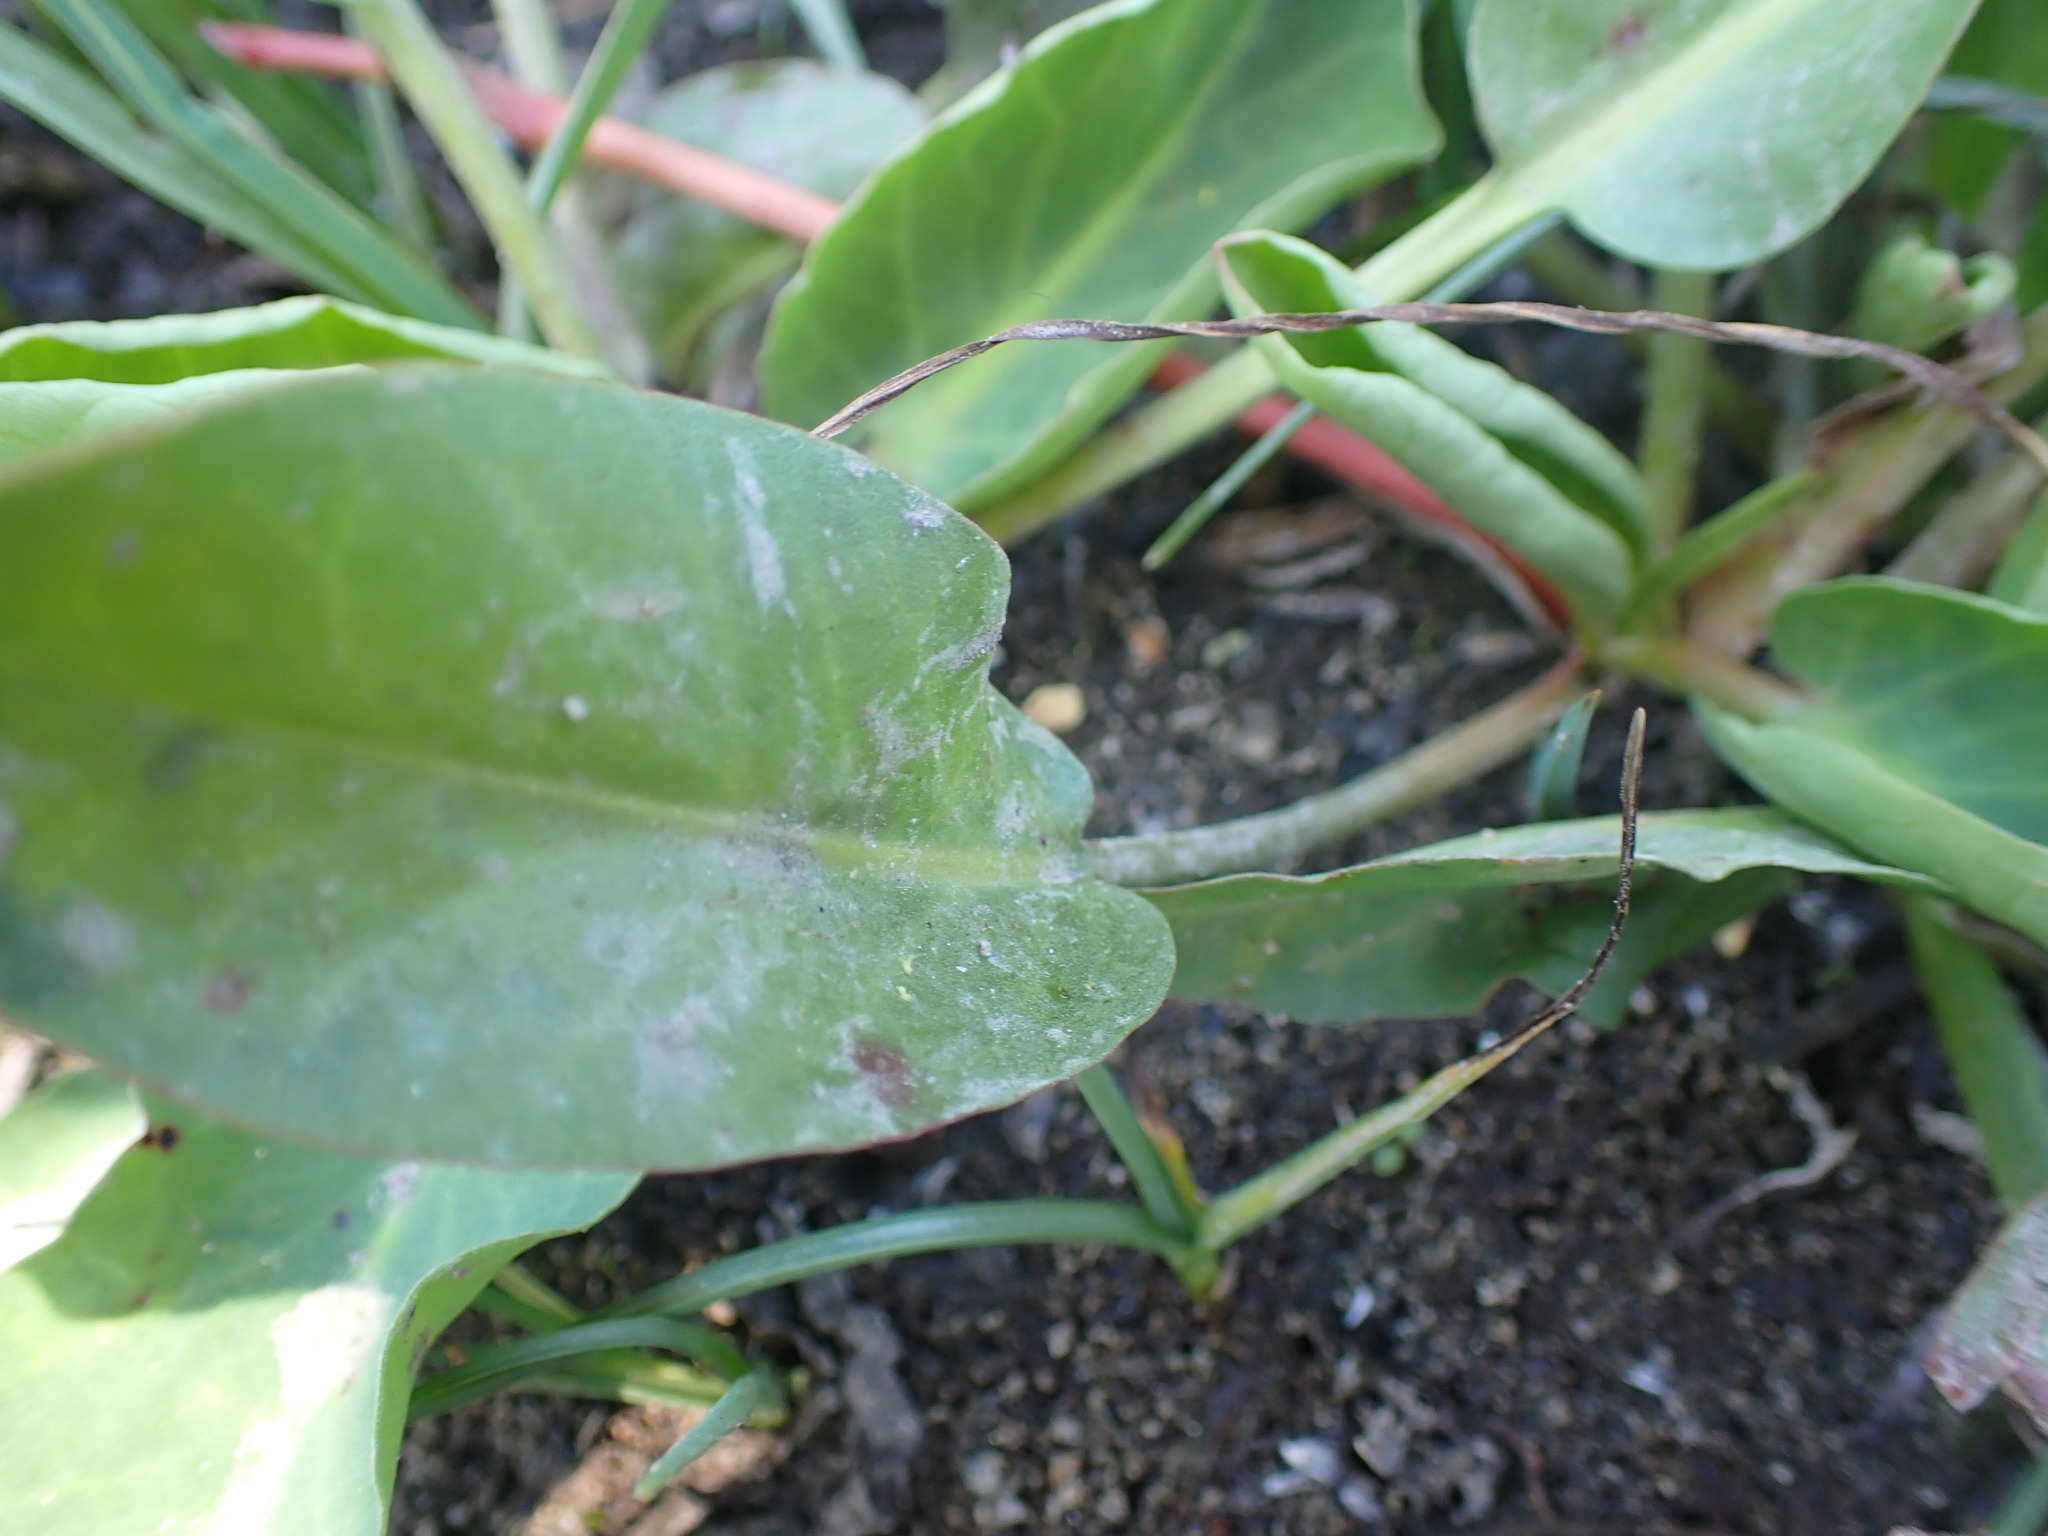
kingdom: Plantae
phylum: Tracheophyta
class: Magnoliopsida
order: Piperales
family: Saururaceae
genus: Anemopsis
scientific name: Anemopsis californica
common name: Apache-beads
